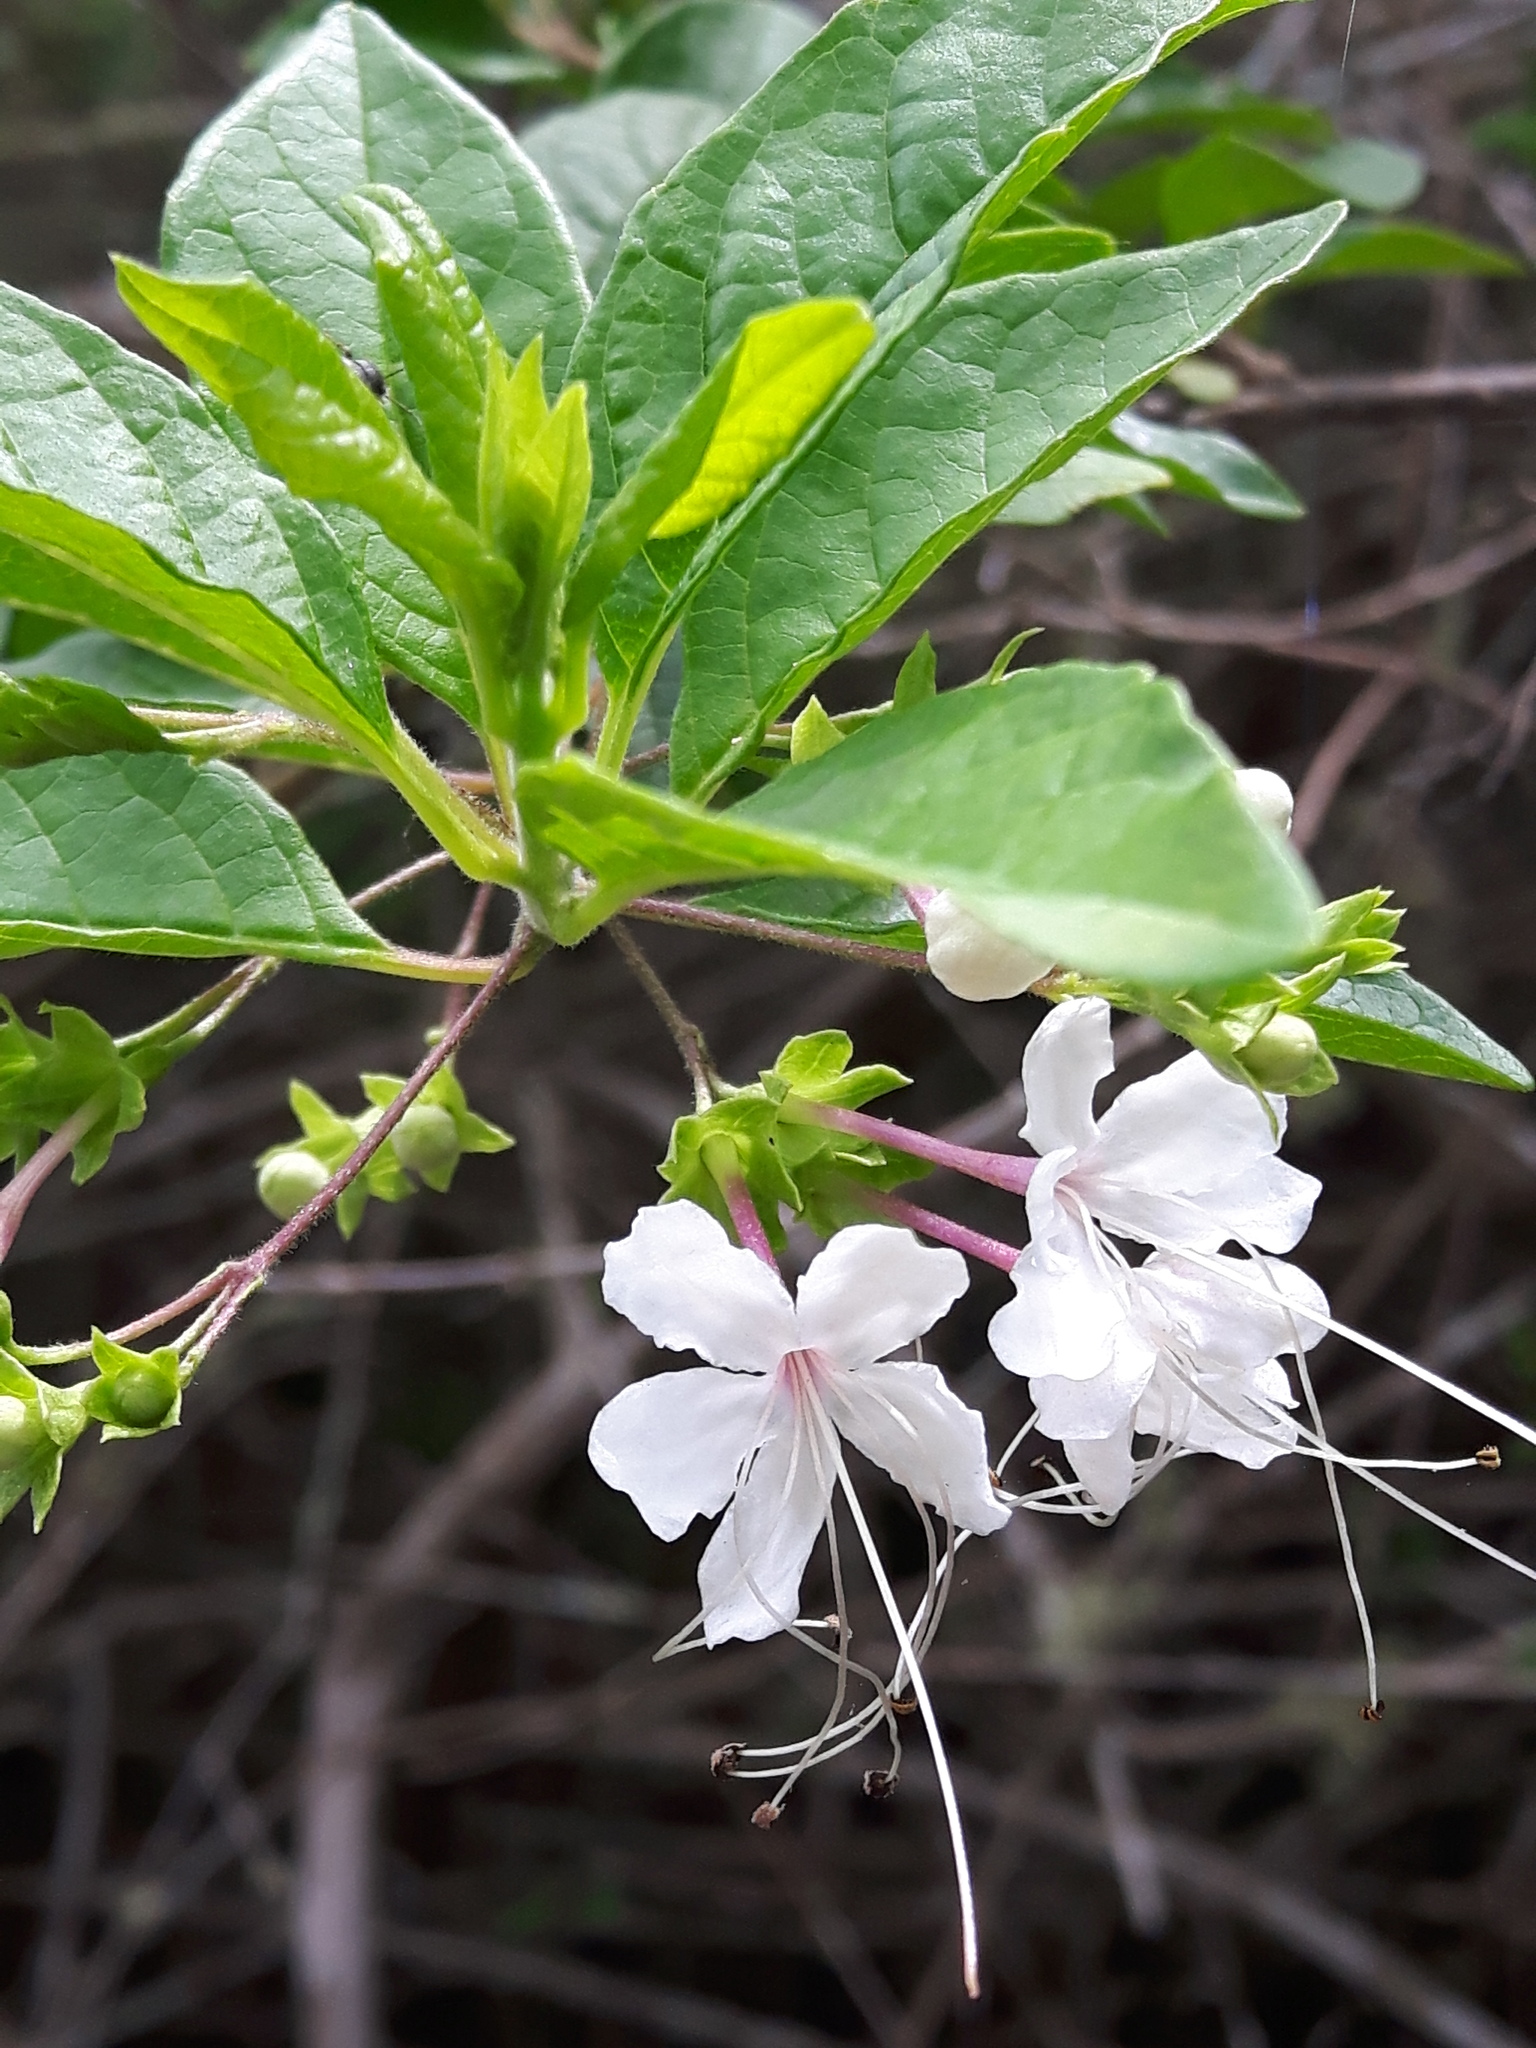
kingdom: Plantae
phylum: Tracheophyta
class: Magnoliopsida
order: Lamiales
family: Lamiaceae
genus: Volkameria
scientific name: Volkameria mollis
